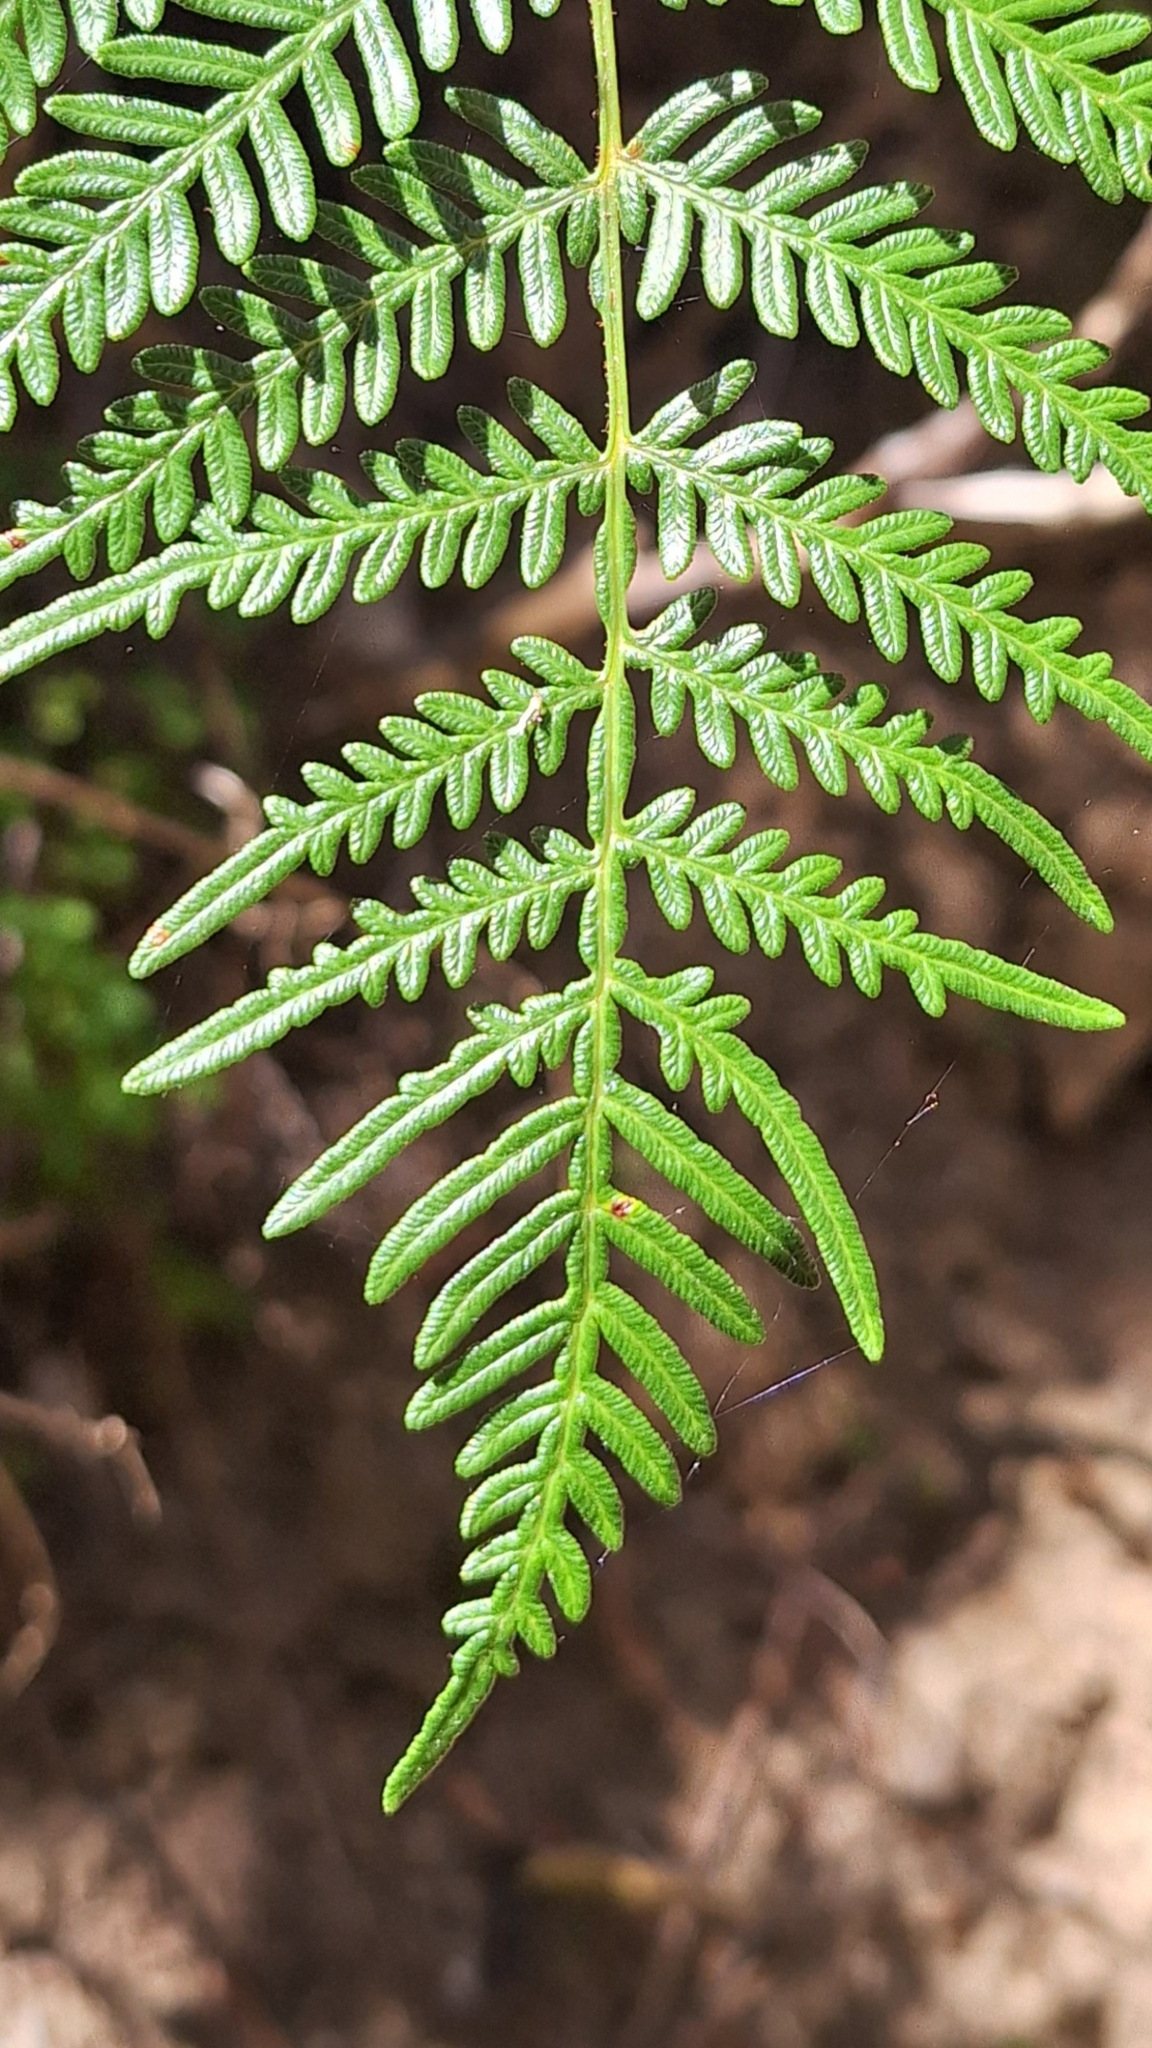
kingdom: Plantae
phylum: Tracheophyta
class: Polypodiopsida
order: Polypodiales
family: Dennstaedtiaceae
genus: Pteridium
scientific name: Pteridium esculentum
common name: Bracken fern
